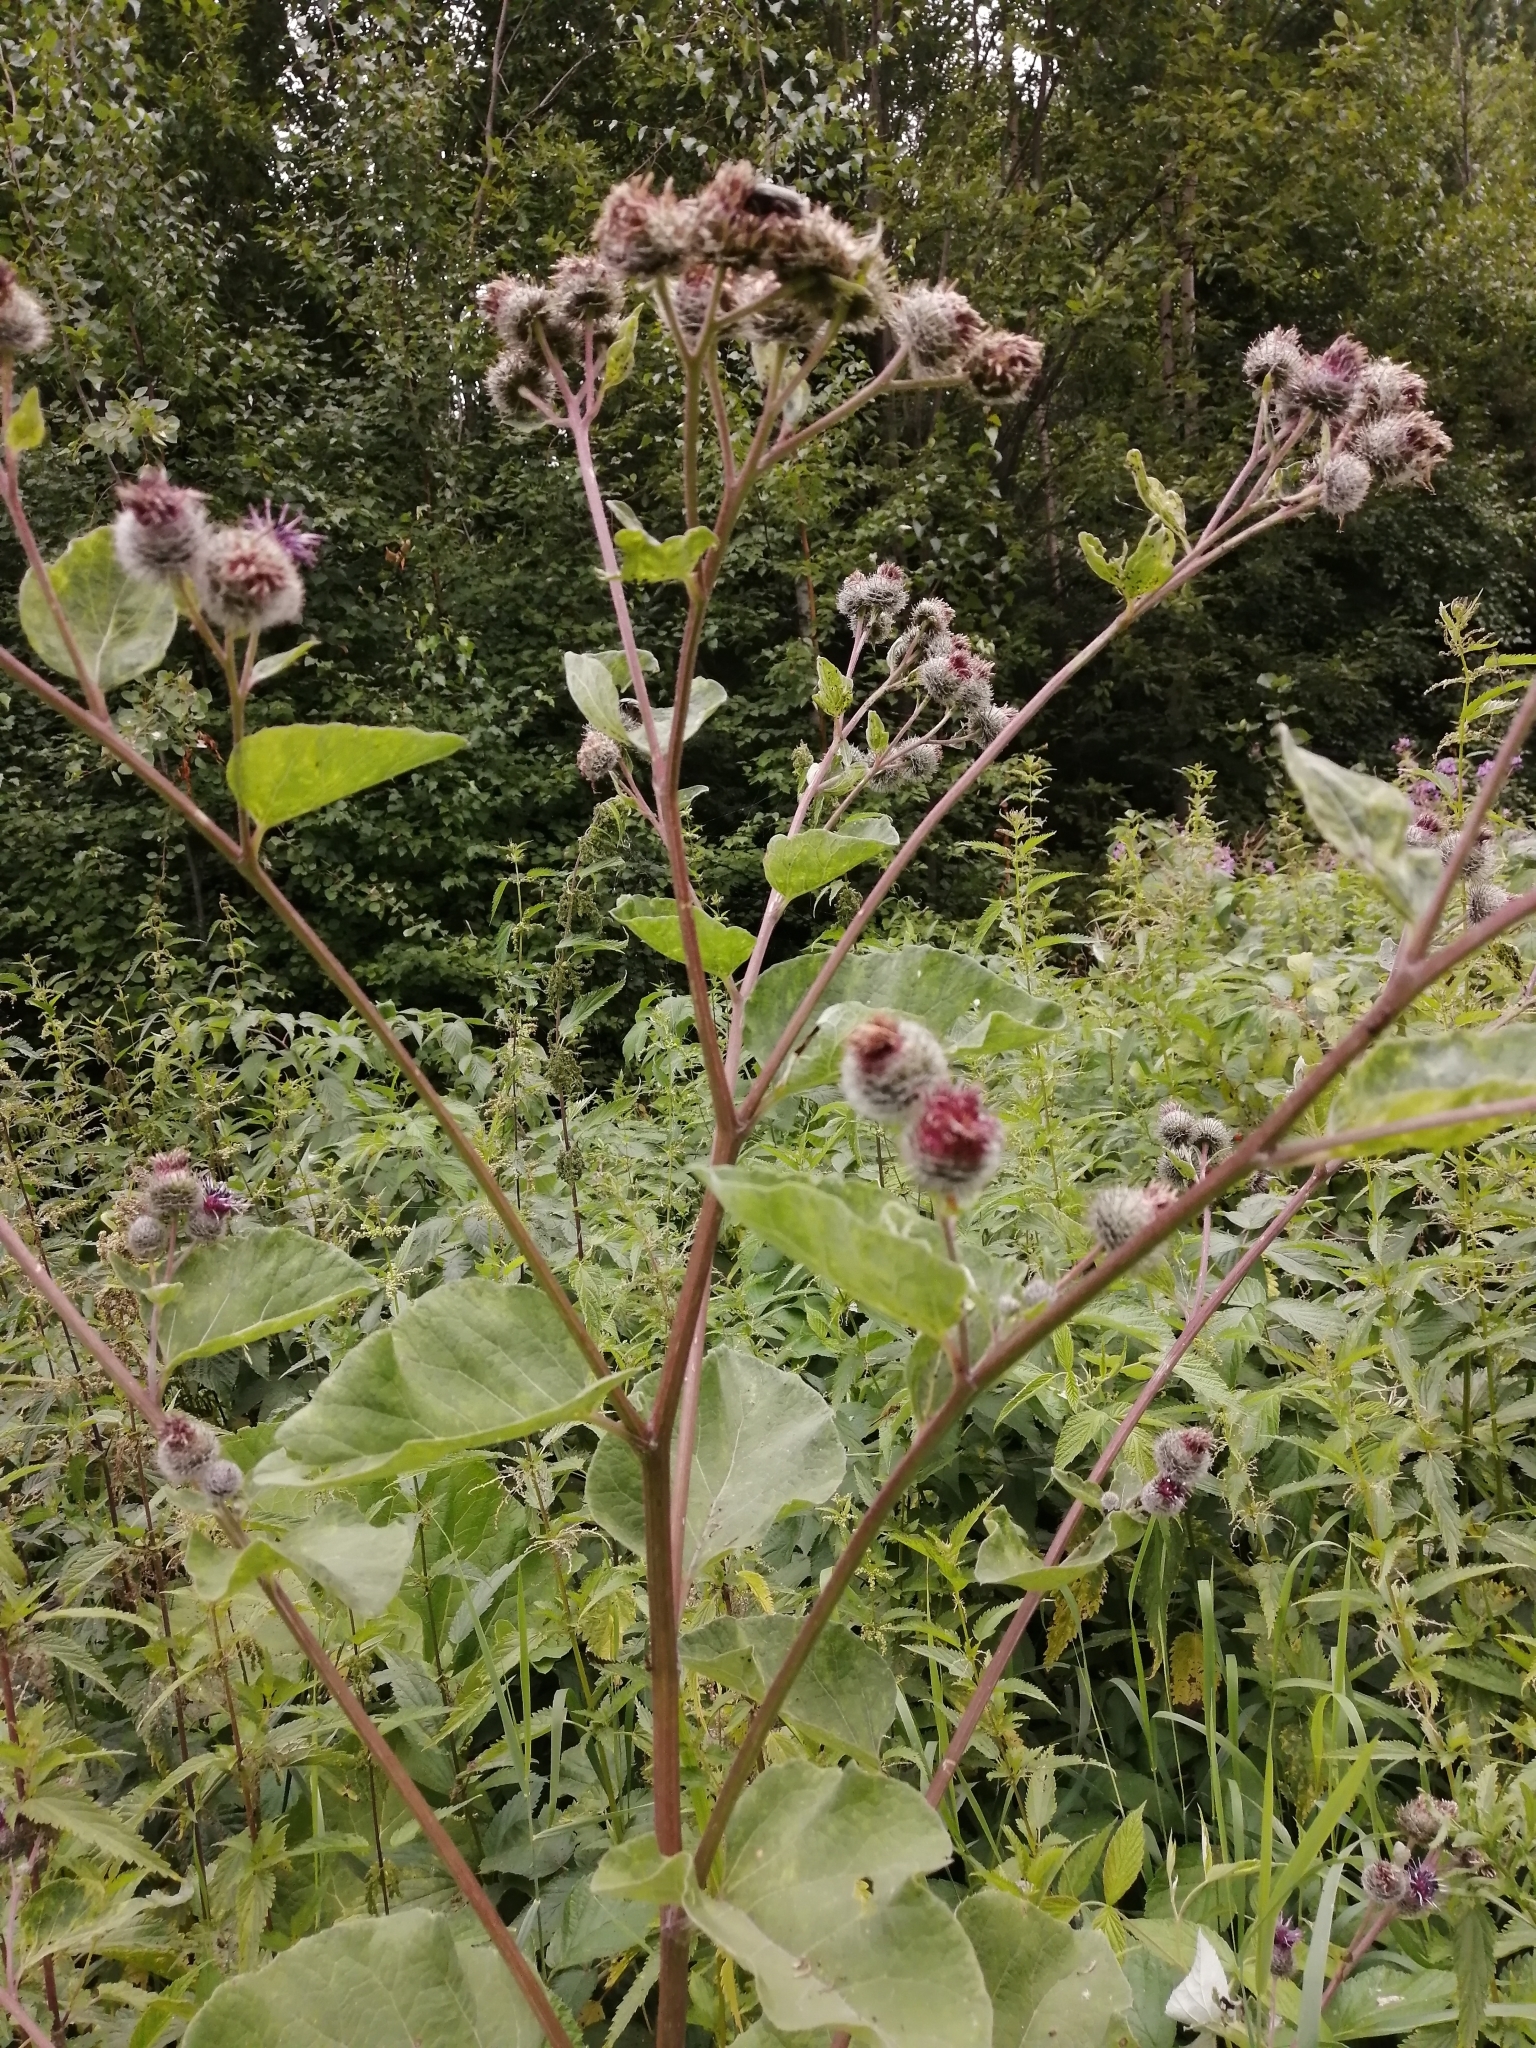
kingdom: Plantae
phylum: Tracheophyta
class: Magnoliopsida
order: Asterales
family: Asteraceae
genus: Arctium
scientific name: Arctium tomentosum
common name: Woolly burdock
